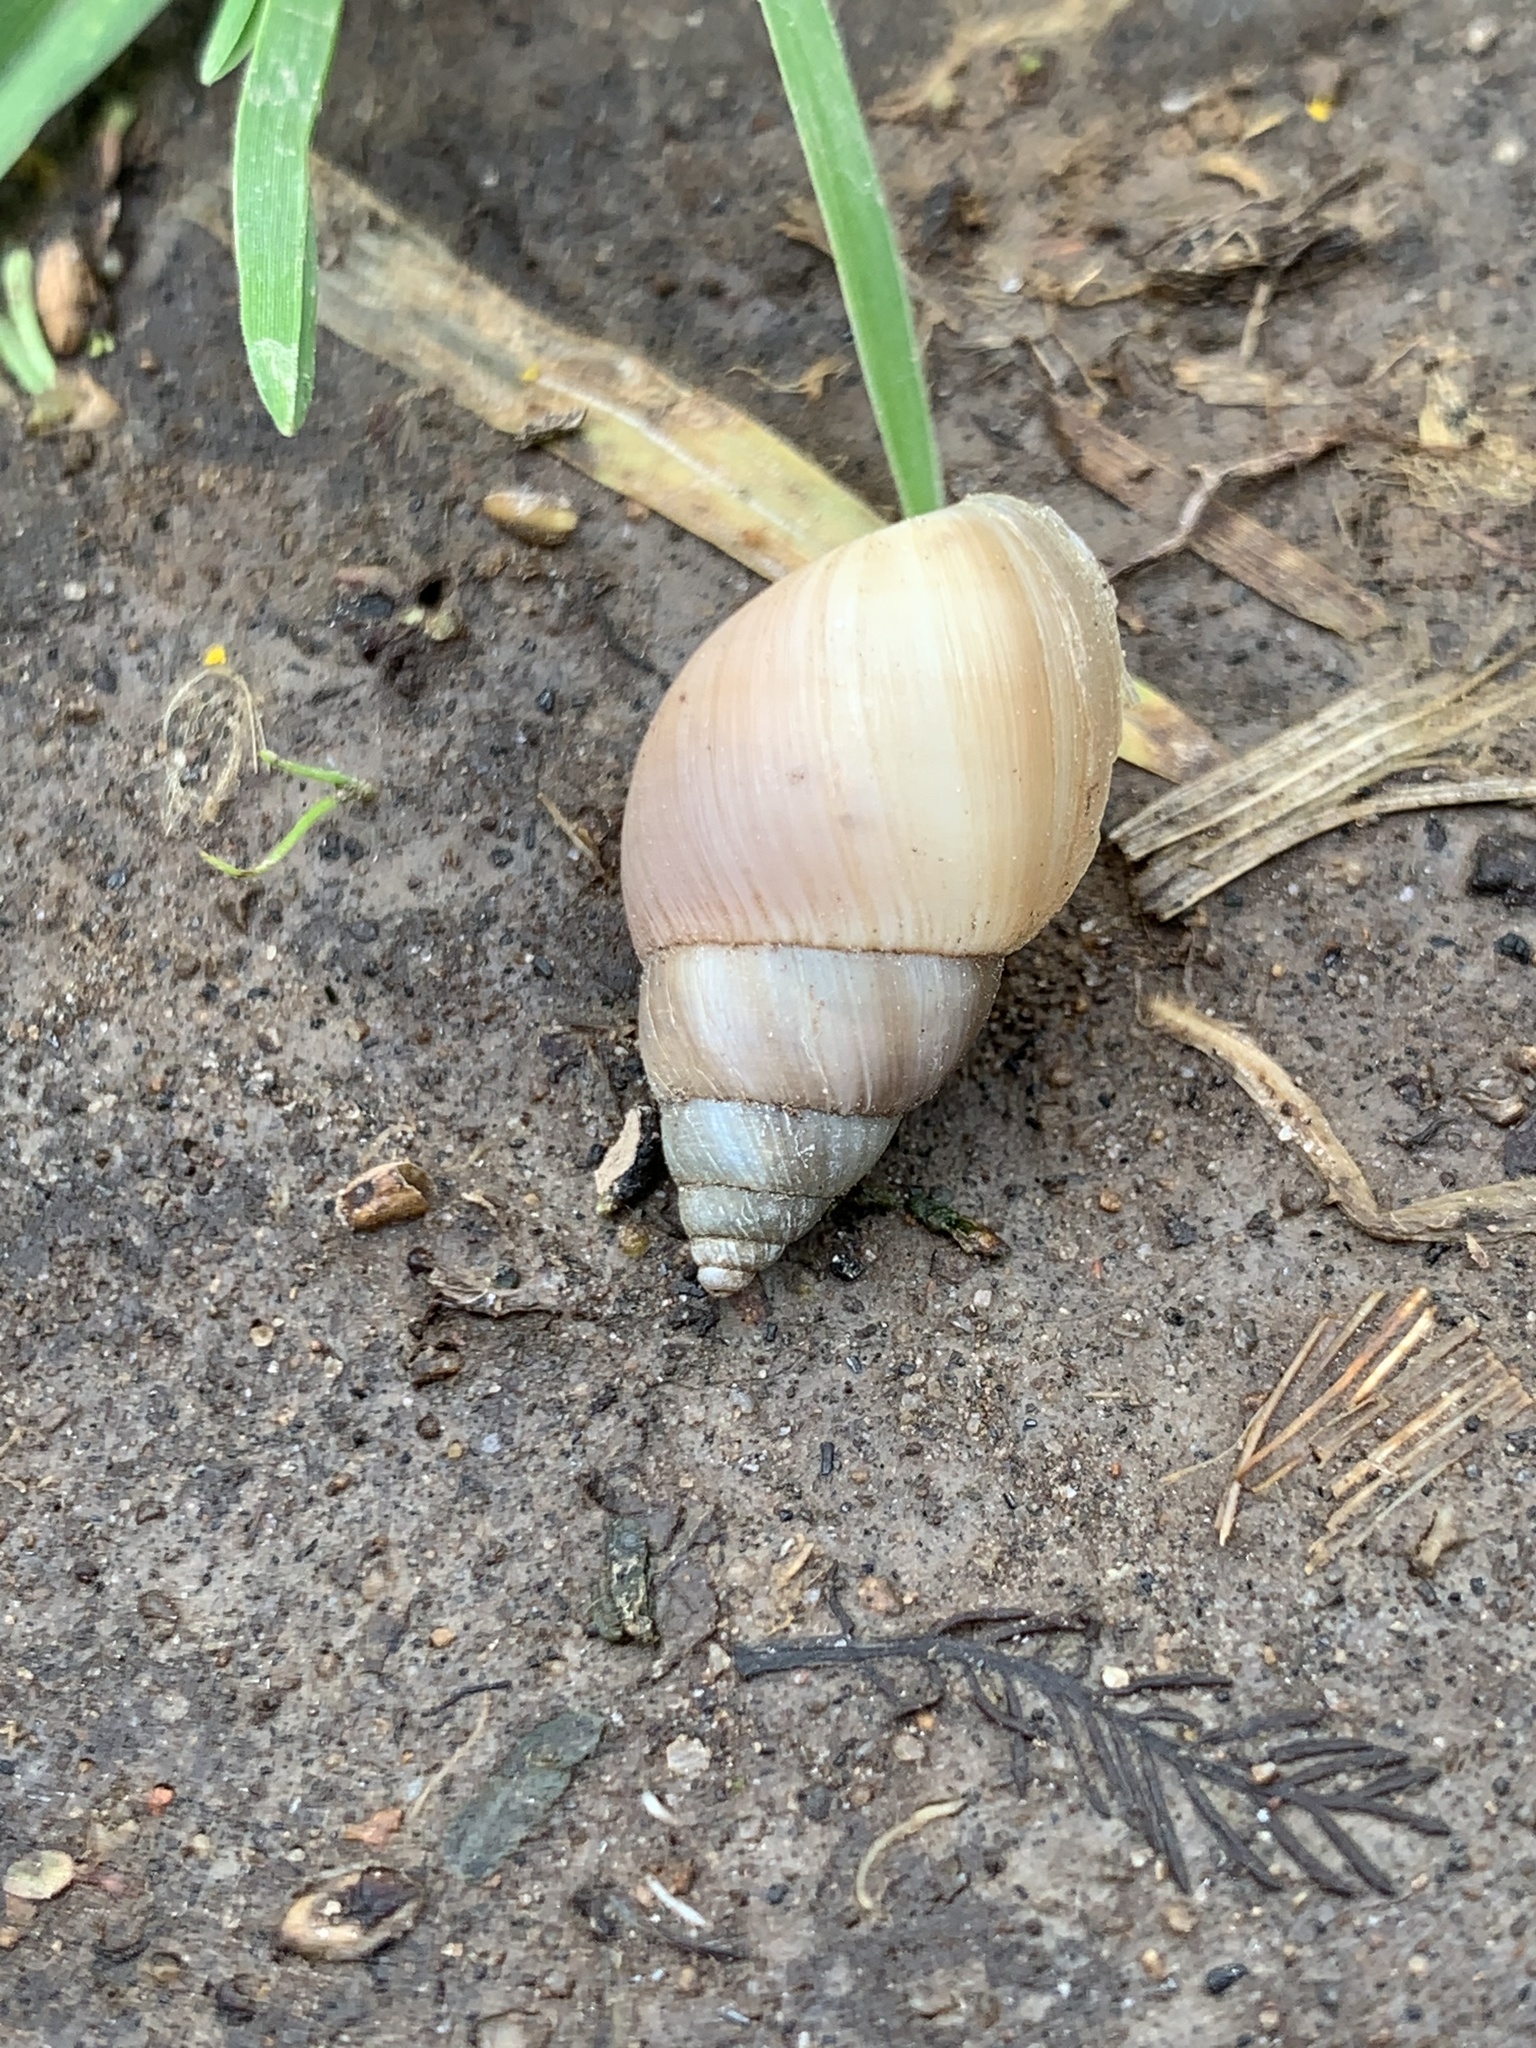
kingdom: Animalia
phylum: Mollusca
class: Gastropoda
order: Stylommatophora
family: Bulimulidae
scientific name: Bulimulidae
